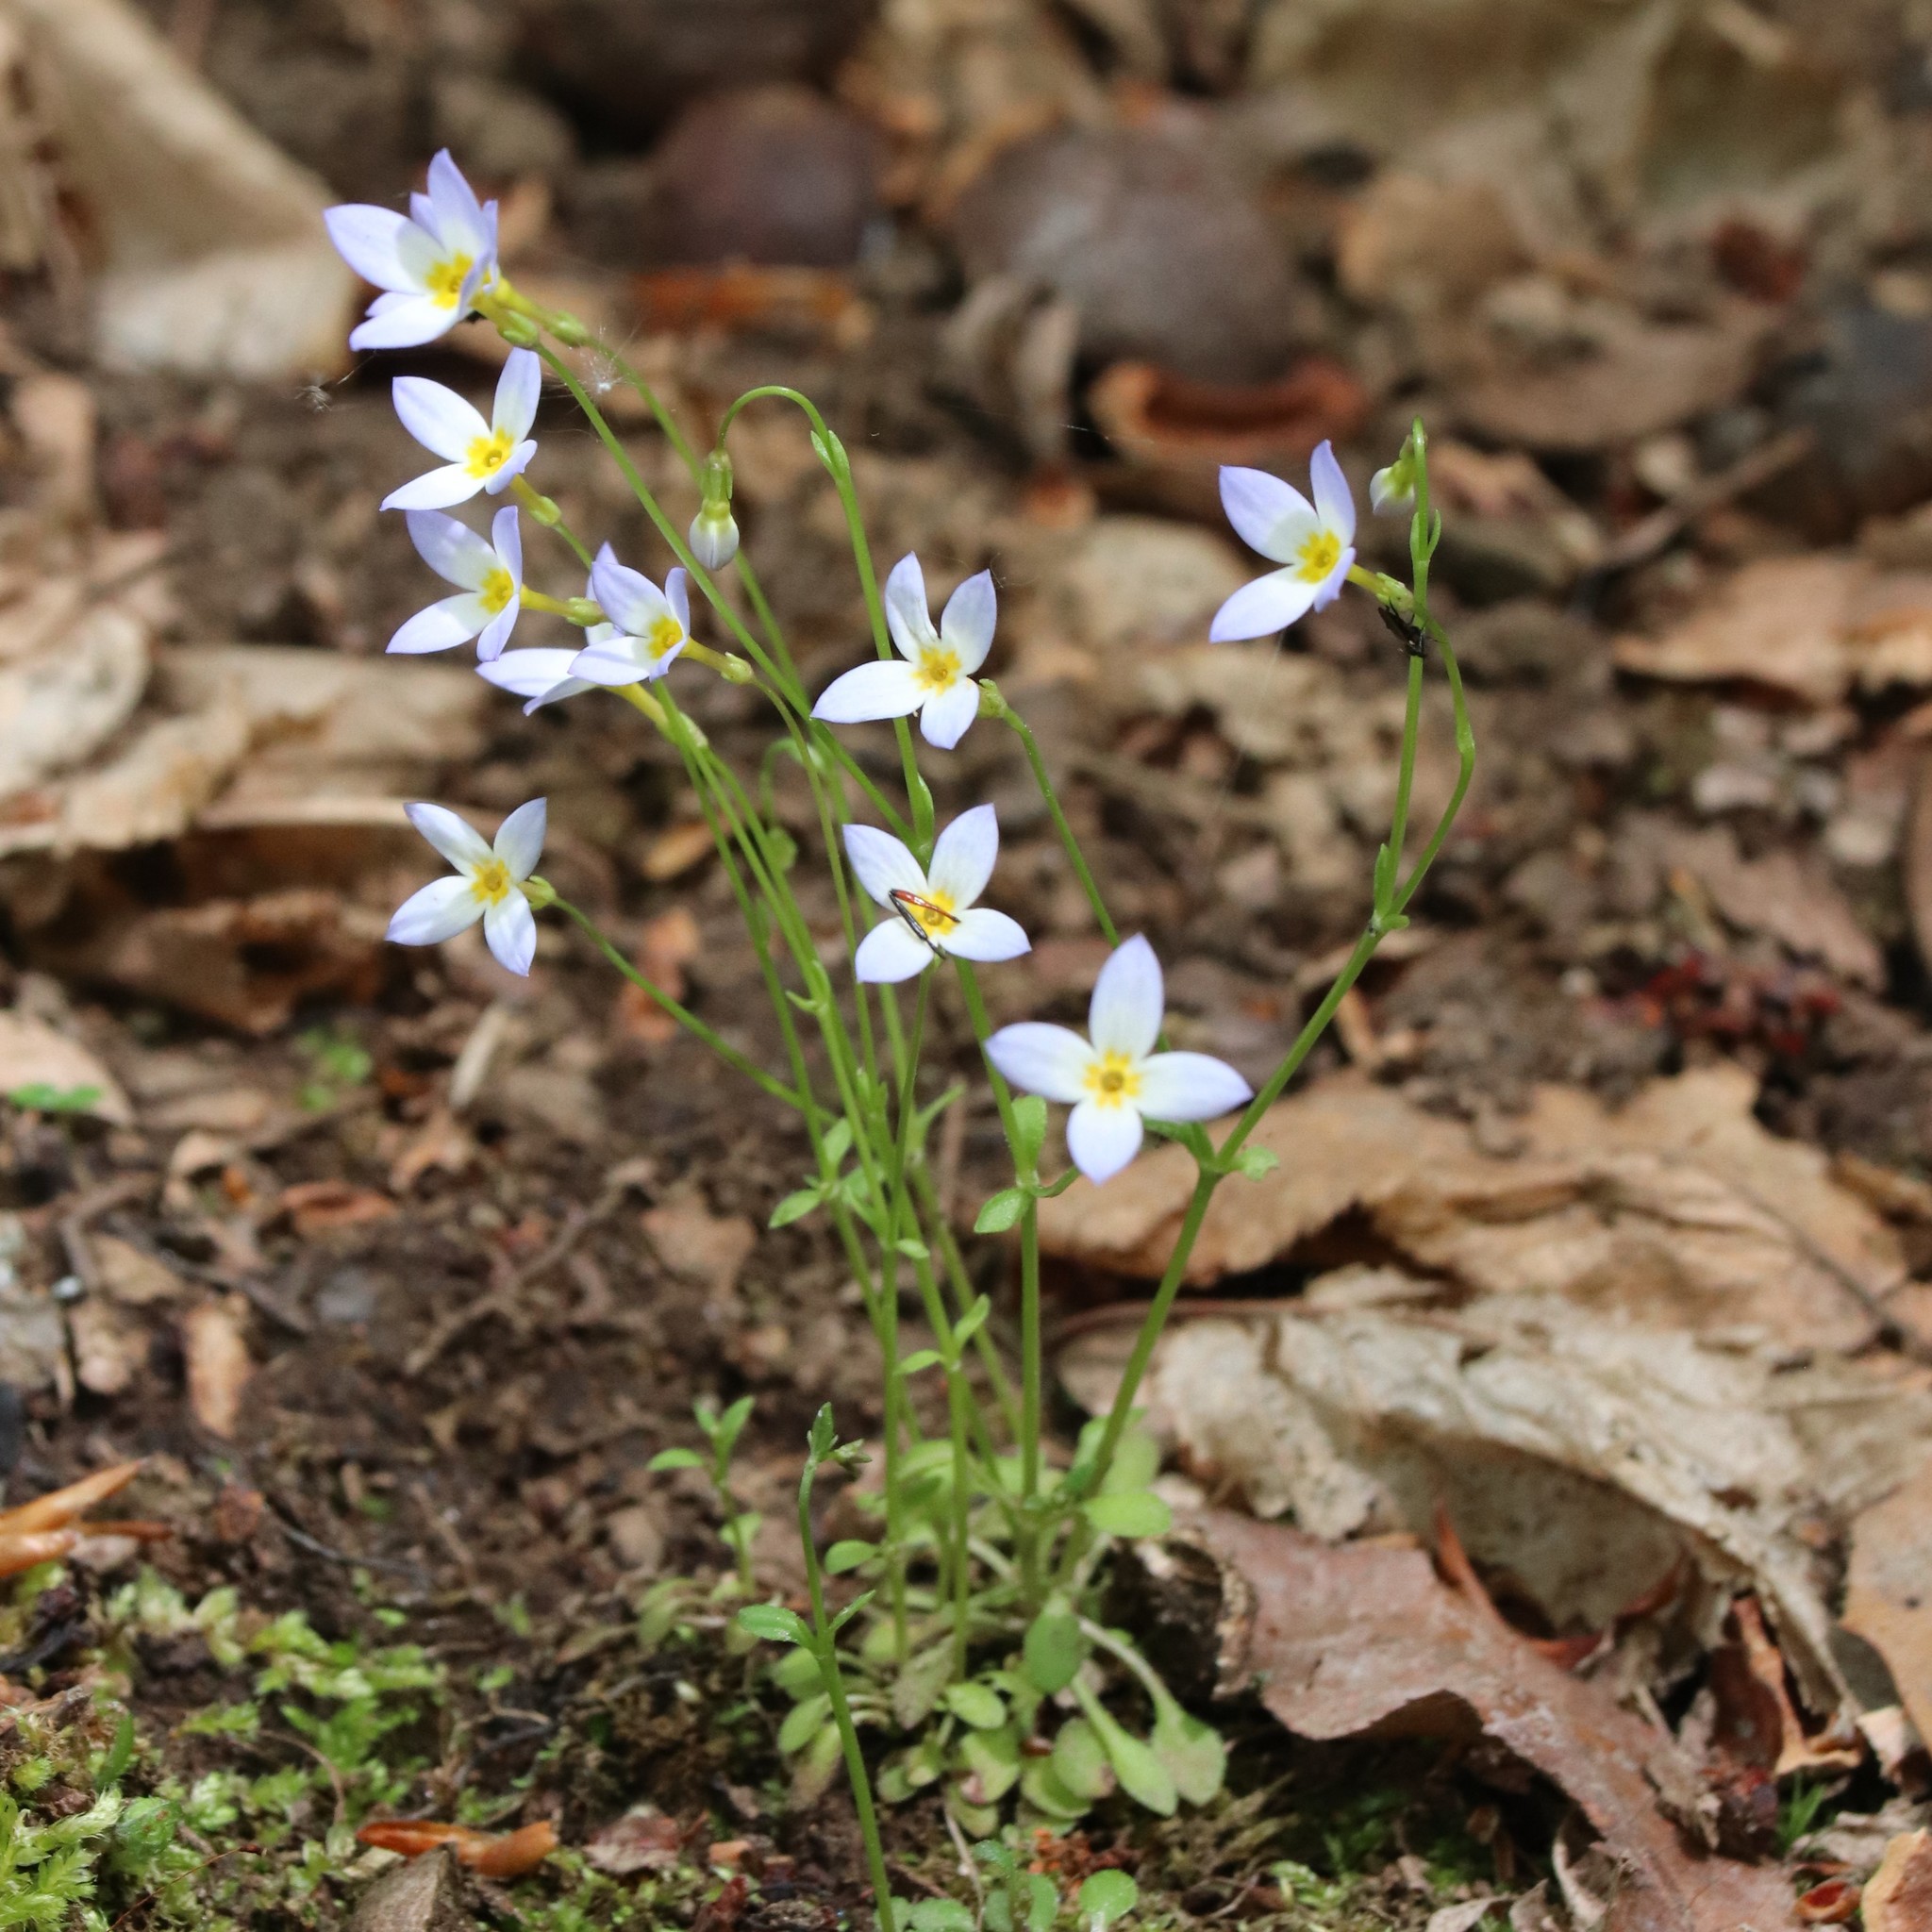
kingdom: Plantae
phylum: Tracheophyta
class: Magnoliopsida
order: Gentianales
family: Rubiaceae
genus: Houstonia
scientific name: Houstonia caerulea
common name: Bluets
